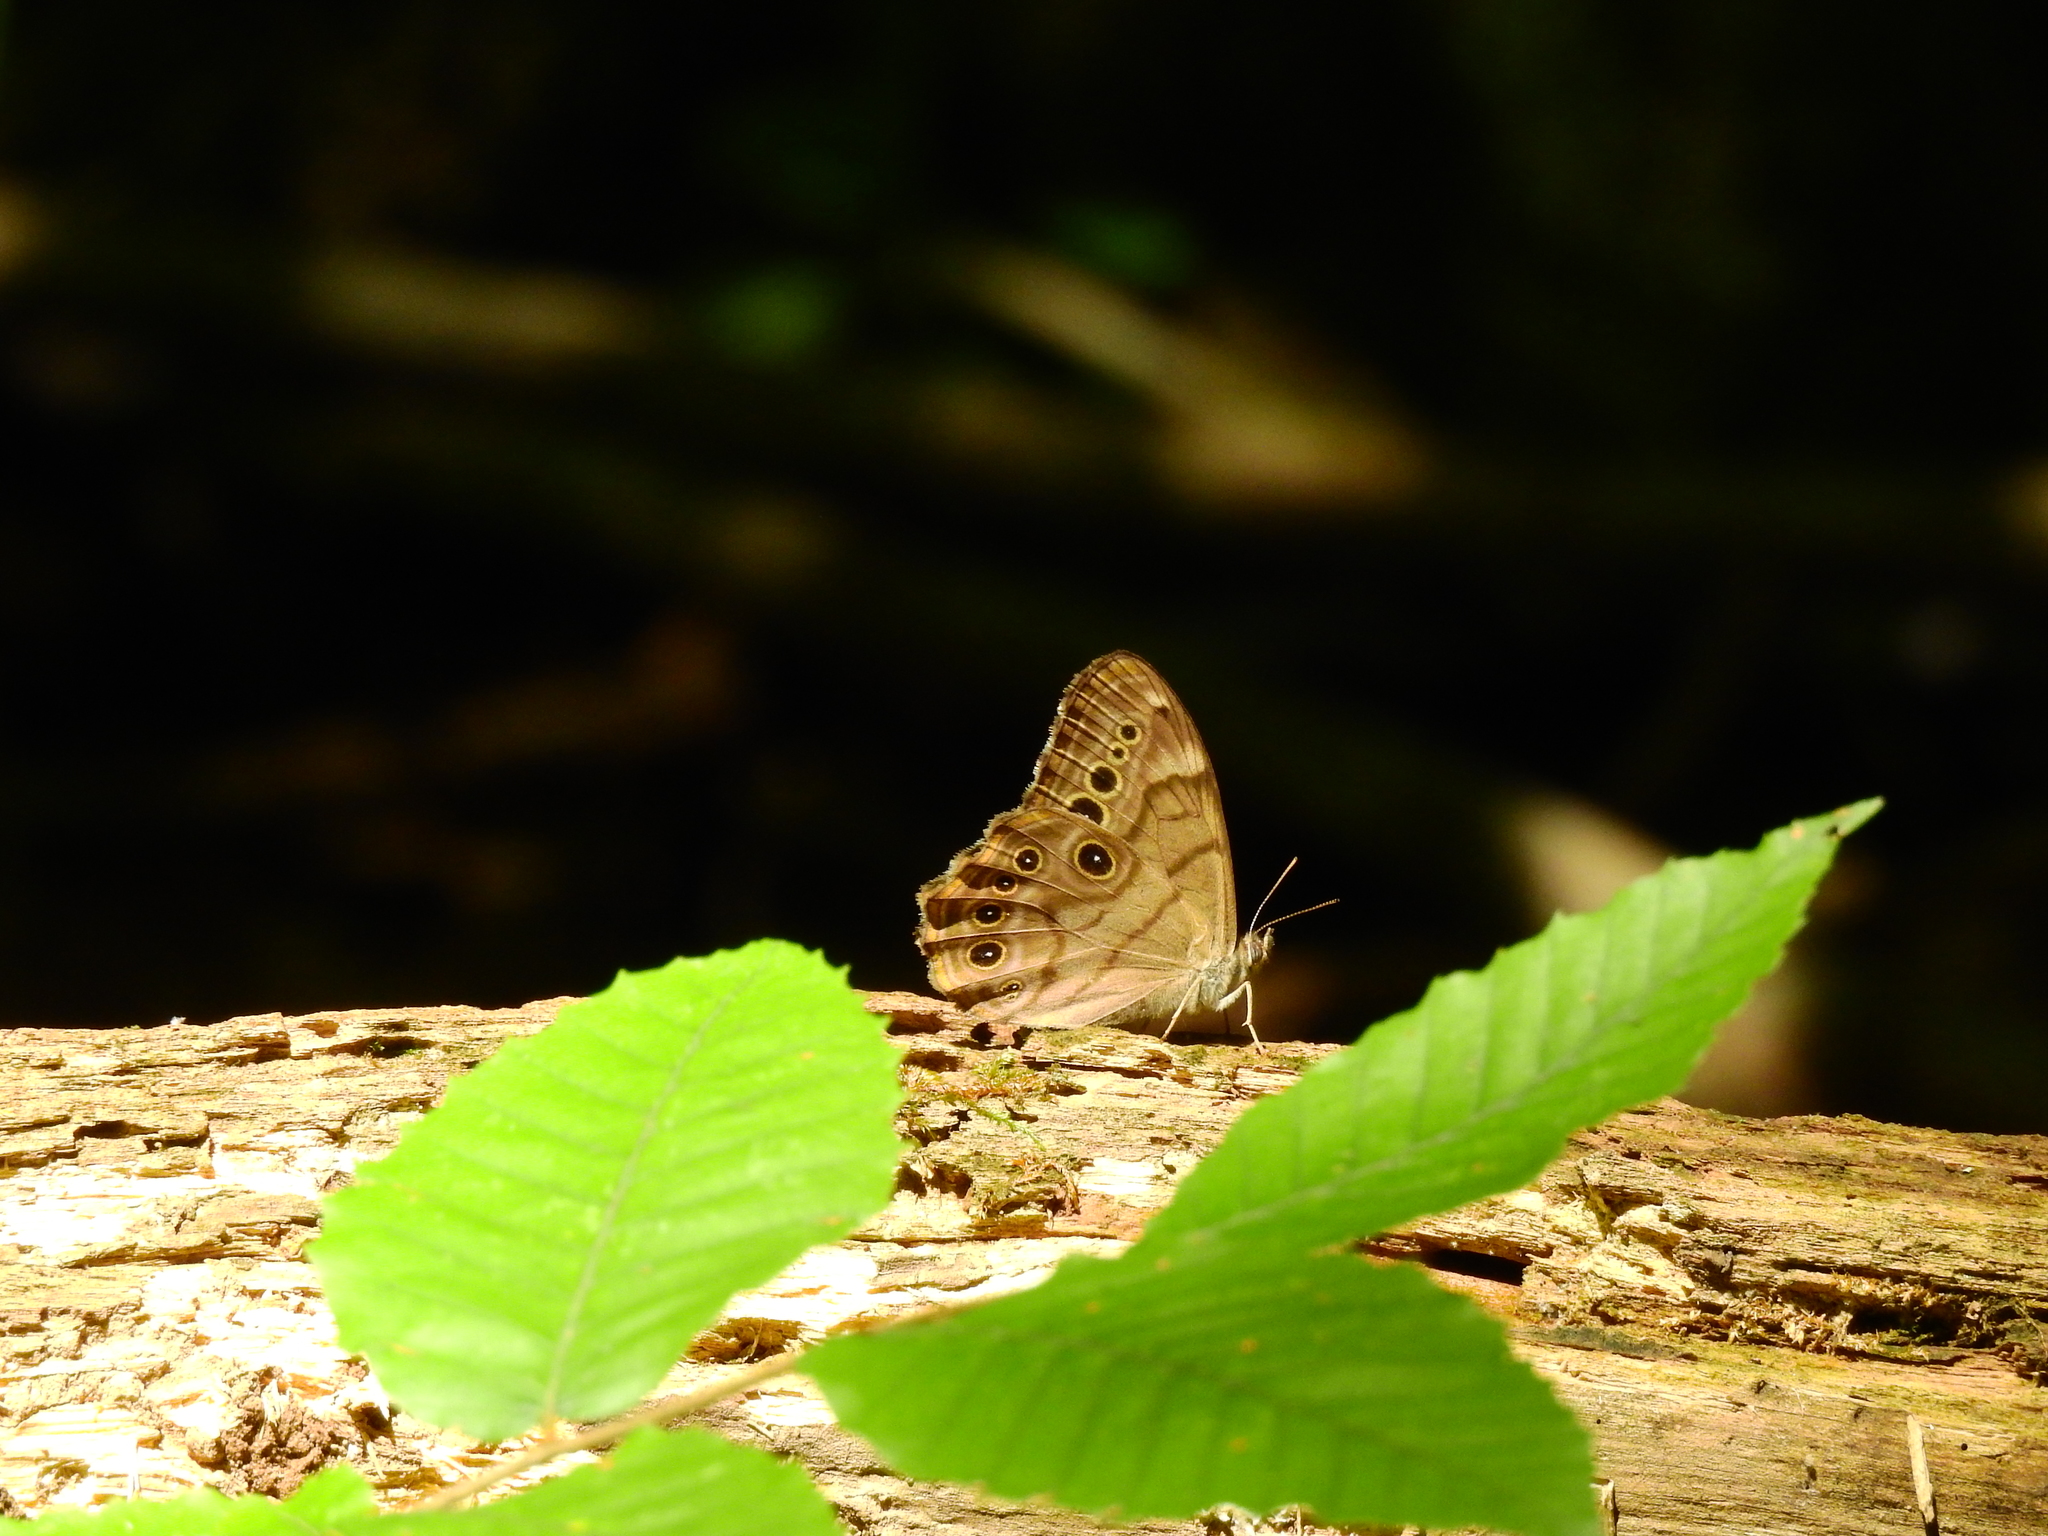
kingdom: Animalia
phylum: Arthropoda
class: Insecta
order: Lepidoptera
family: Nymphalidae
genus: Lethe
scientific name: Lethe anthedon
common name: Northern pearly-eye
